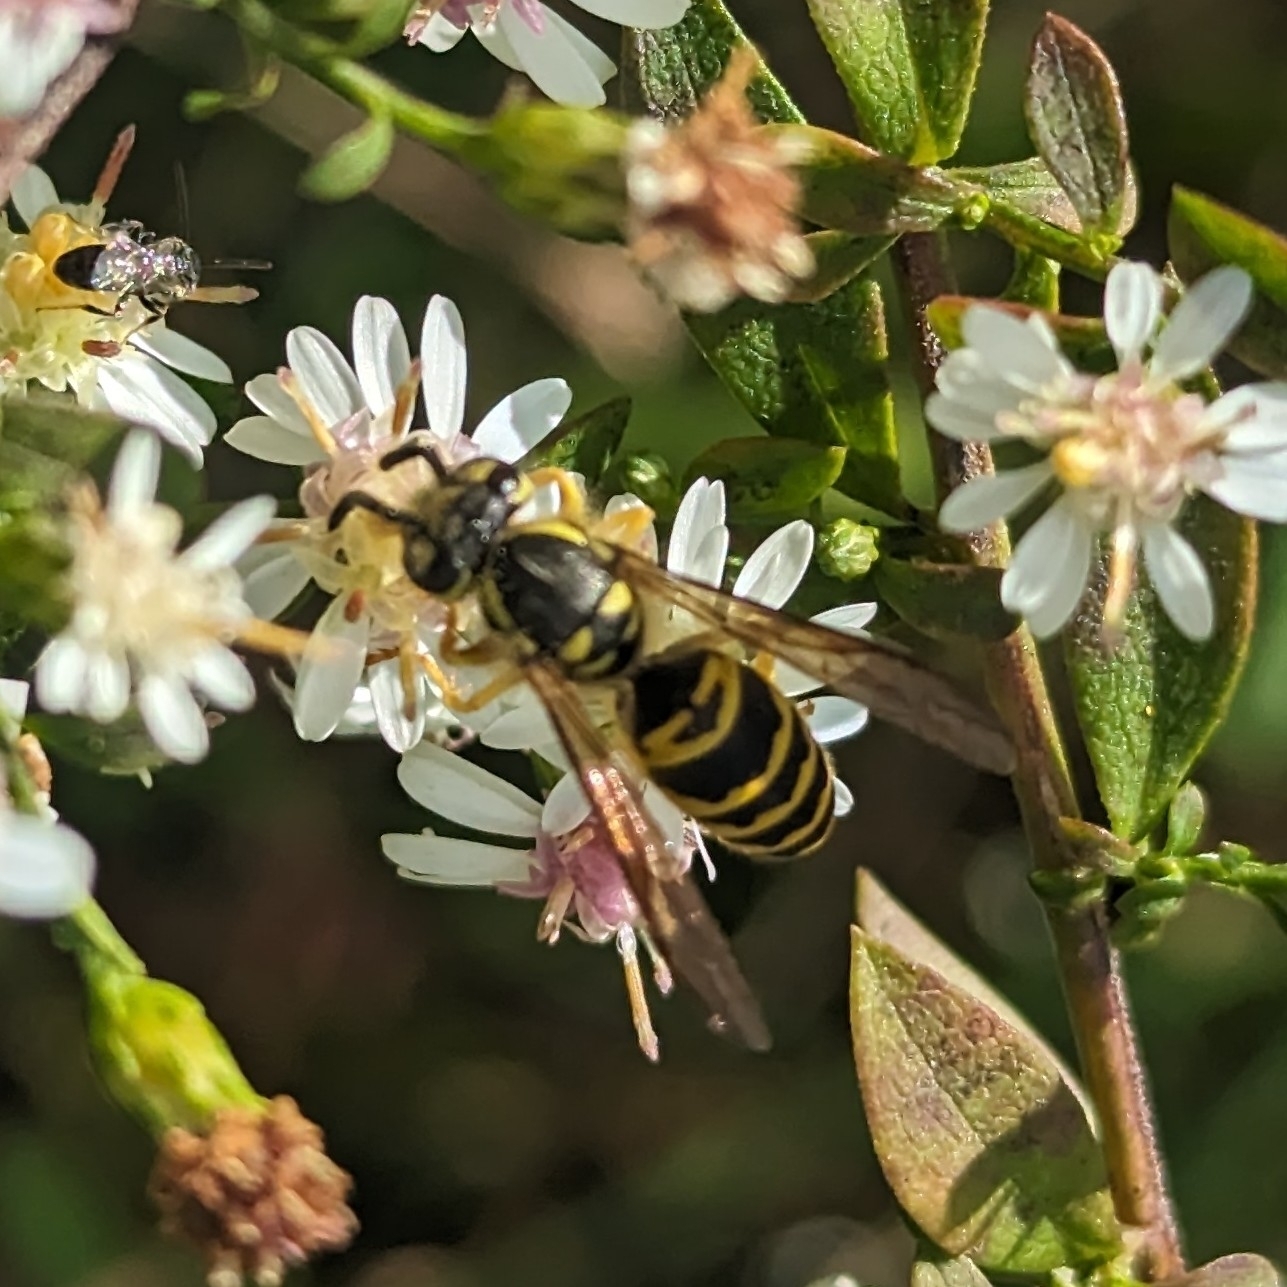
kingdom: Animalia
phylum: Arthropoda
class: Insecta
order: Hymenoptera
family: Vespidae
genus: Vespula
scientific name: Vespula maculifrons
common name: Eastern yellowjacket
